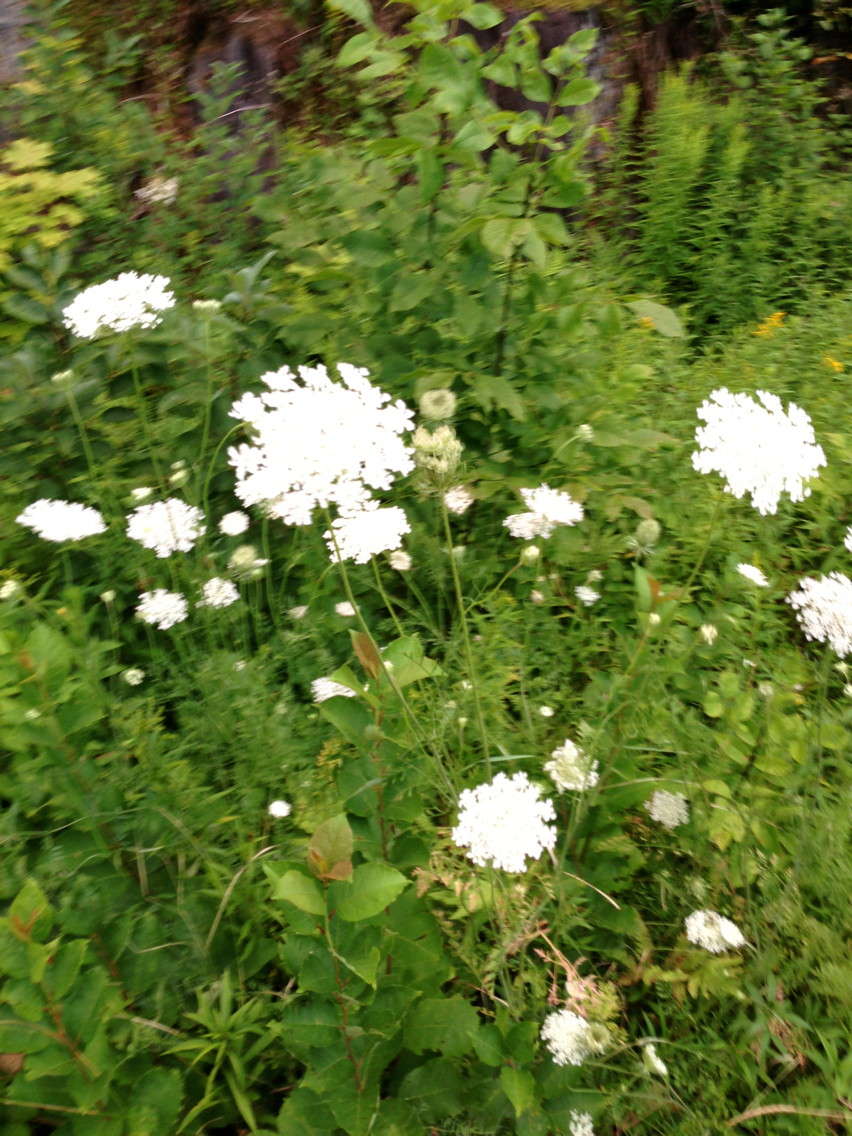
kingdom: Plantae
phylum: Tracheophyta
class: Magnoliopsida
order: Apiales
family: Apiaceae
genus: Daucus
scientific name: Daucus carota
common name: Wild carrot
